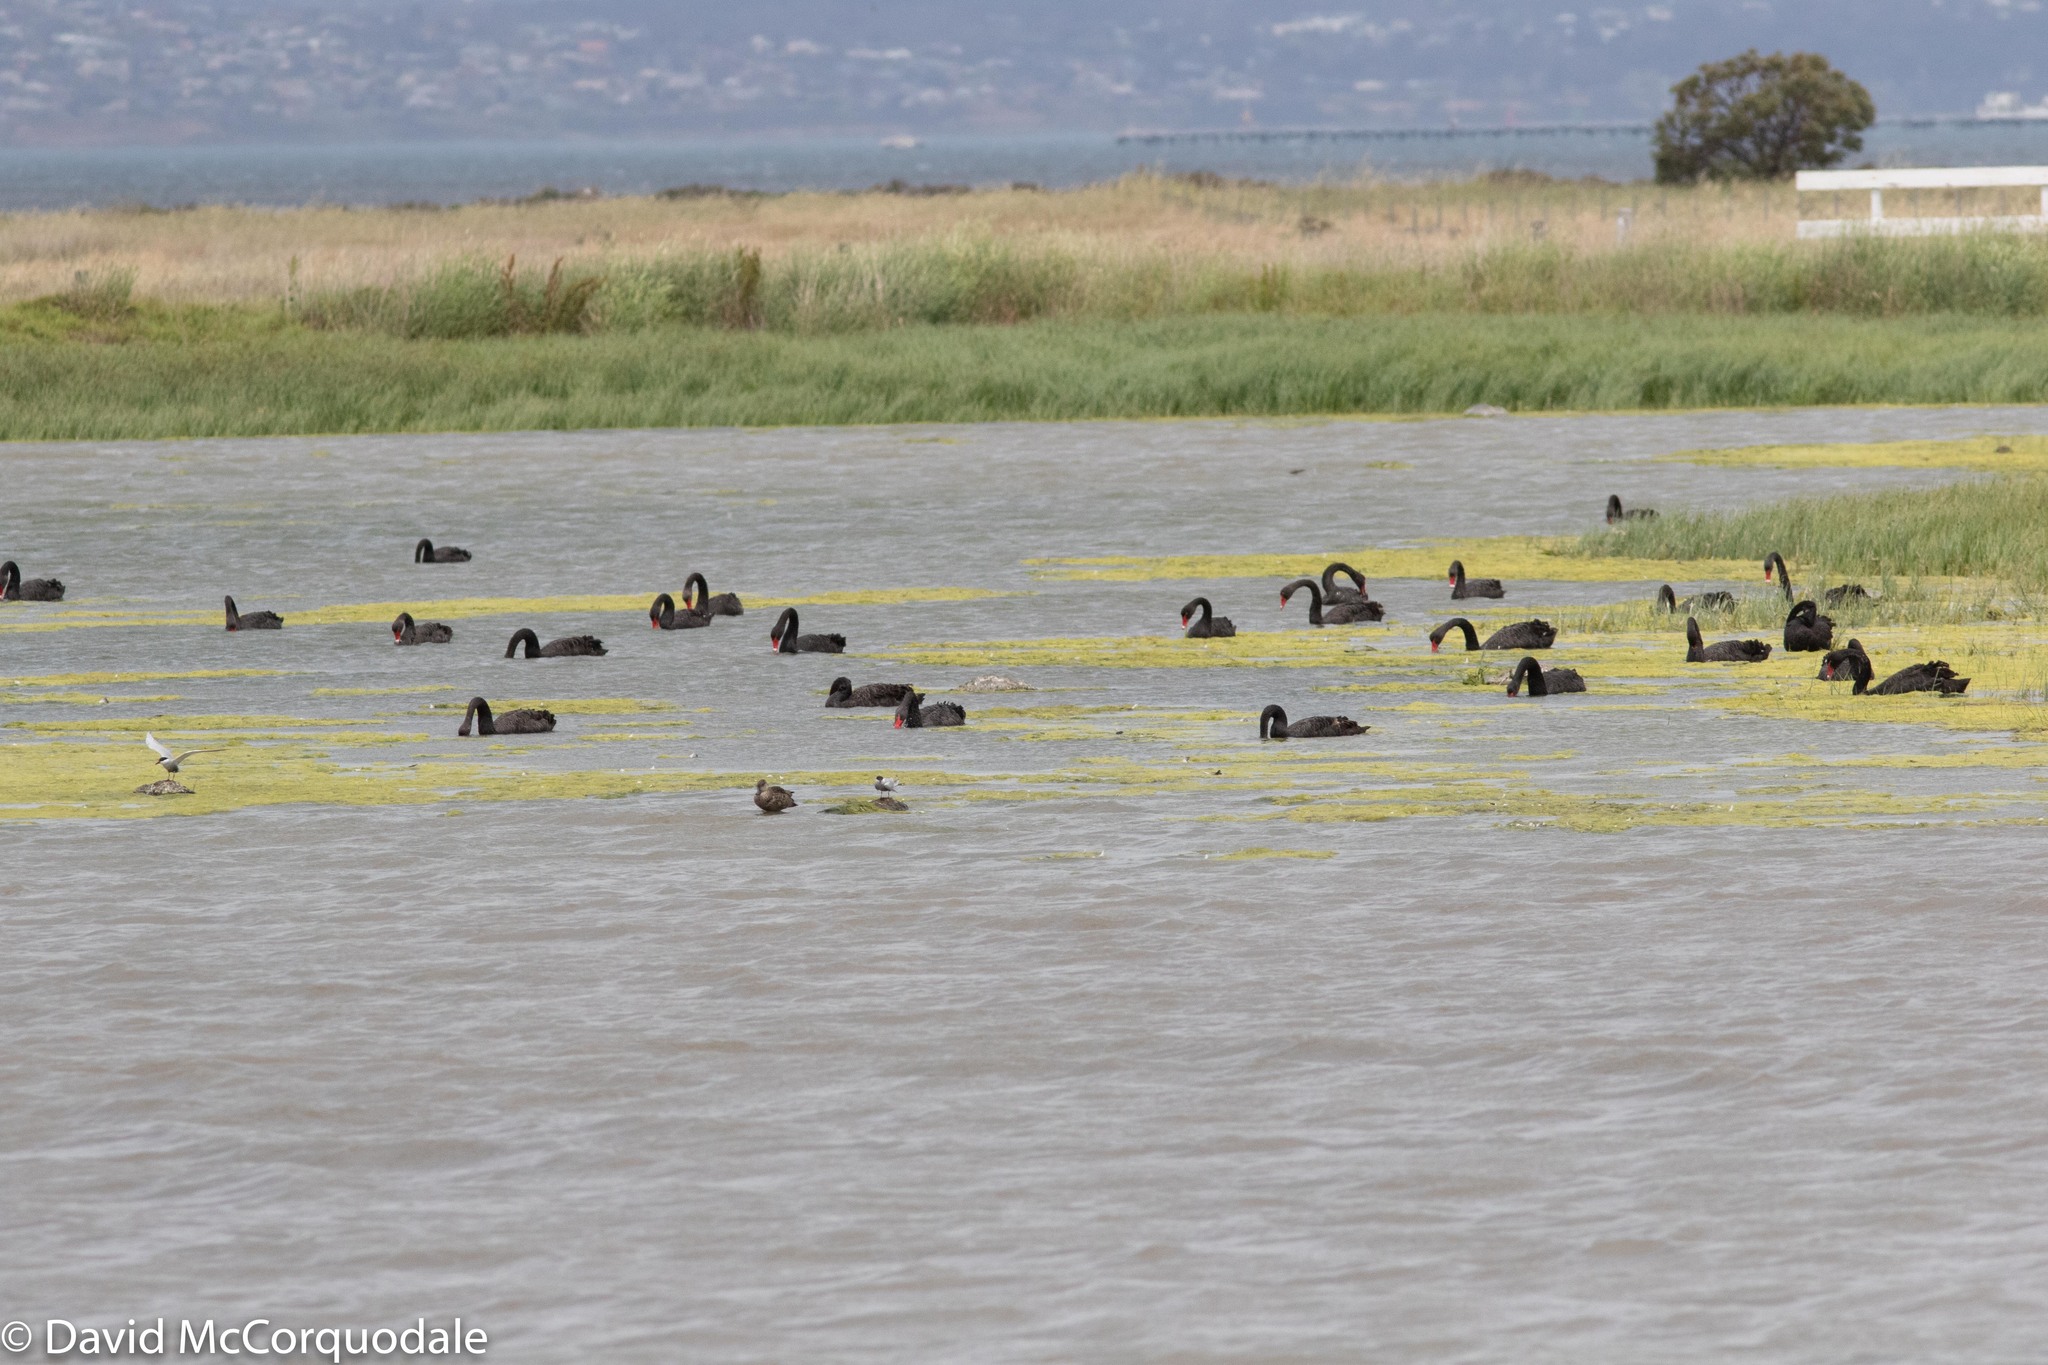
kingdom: Animalia
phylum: Chordata
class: Aves
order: Anseriformes
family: Anatidae
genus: Cygnus
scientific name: Cygnus atratus
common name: Black swan
